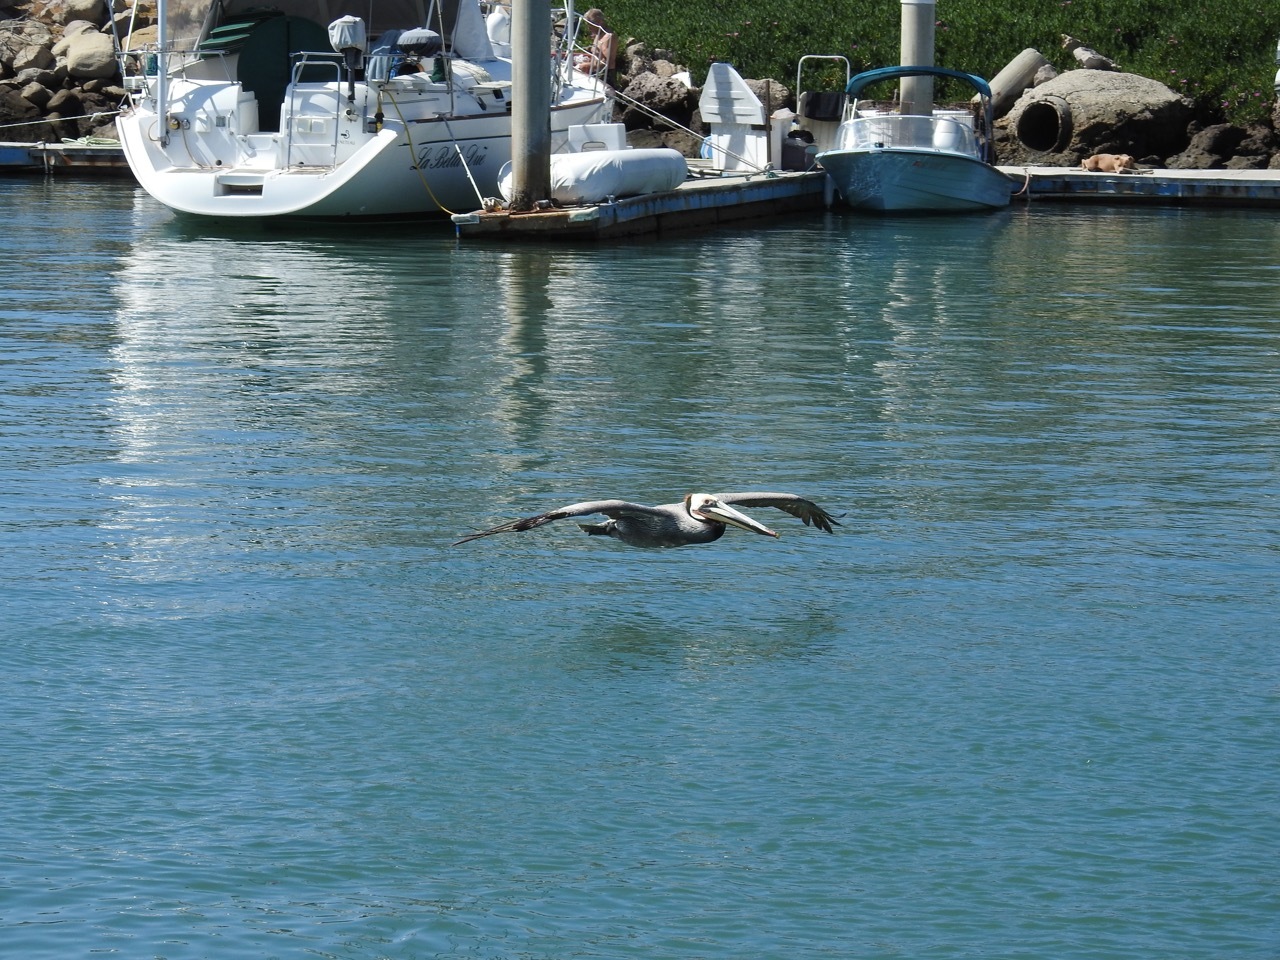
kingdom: Animalia
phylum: Chordata
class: Aves
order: Pelecaniformes
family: Pelecanidae
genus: Pelecanus
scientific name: Pelecanus occidentalis
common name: Brown pelican
